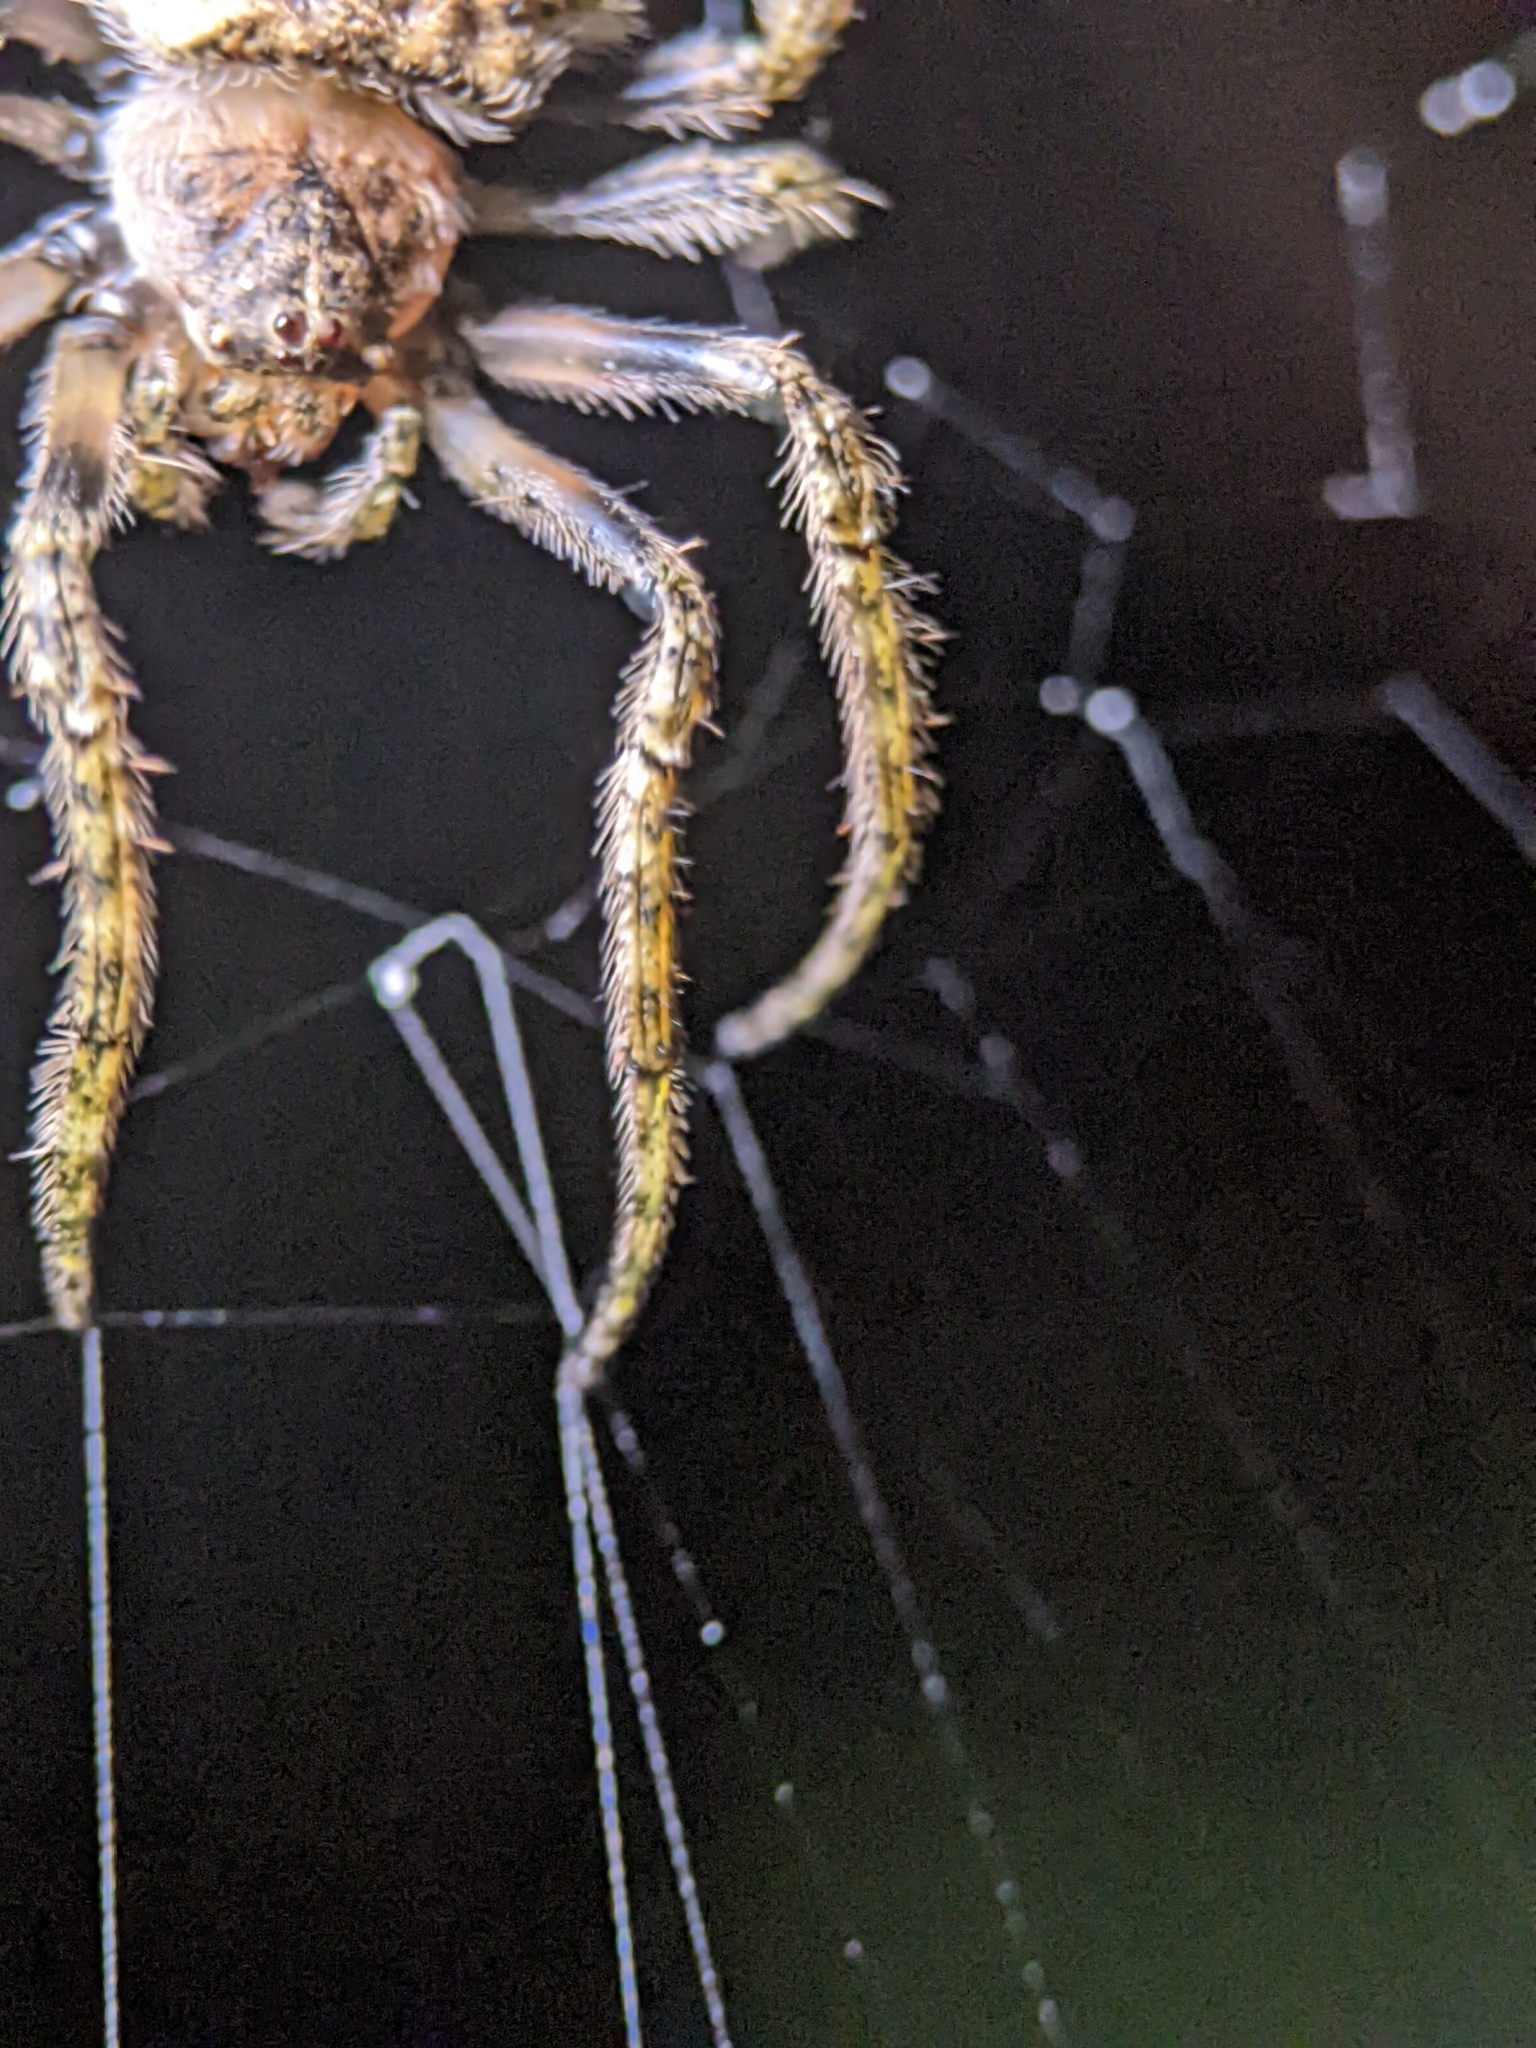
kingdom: Animalia
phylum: Arthropoda
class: Arachnida
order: Araneae
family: Araneidae
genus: Talthybia
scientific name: Talthybia depressa
